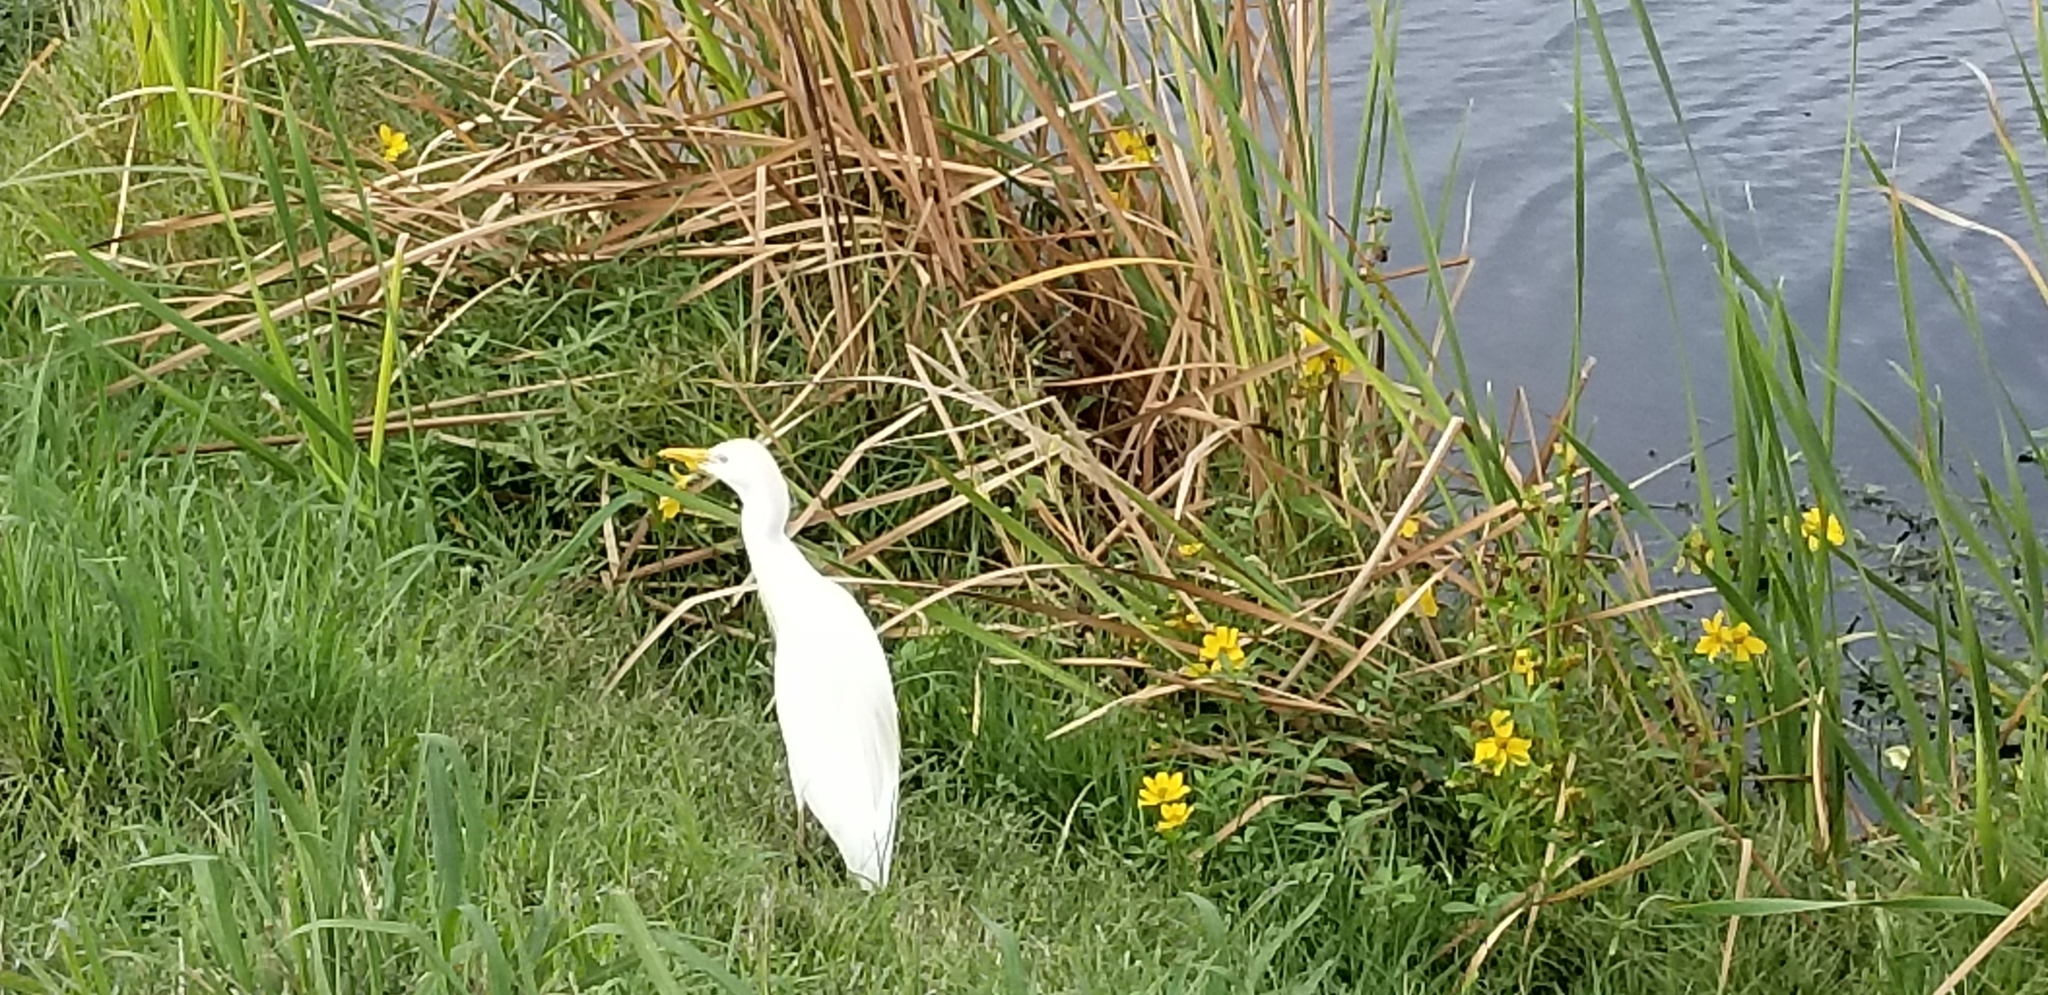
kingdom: Animalia
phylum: Chordata
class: Aves
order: Pelecaniformes
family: Ardeidae
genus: Bubulcus
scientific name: Bubulcus ibis
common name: Cattle egret
